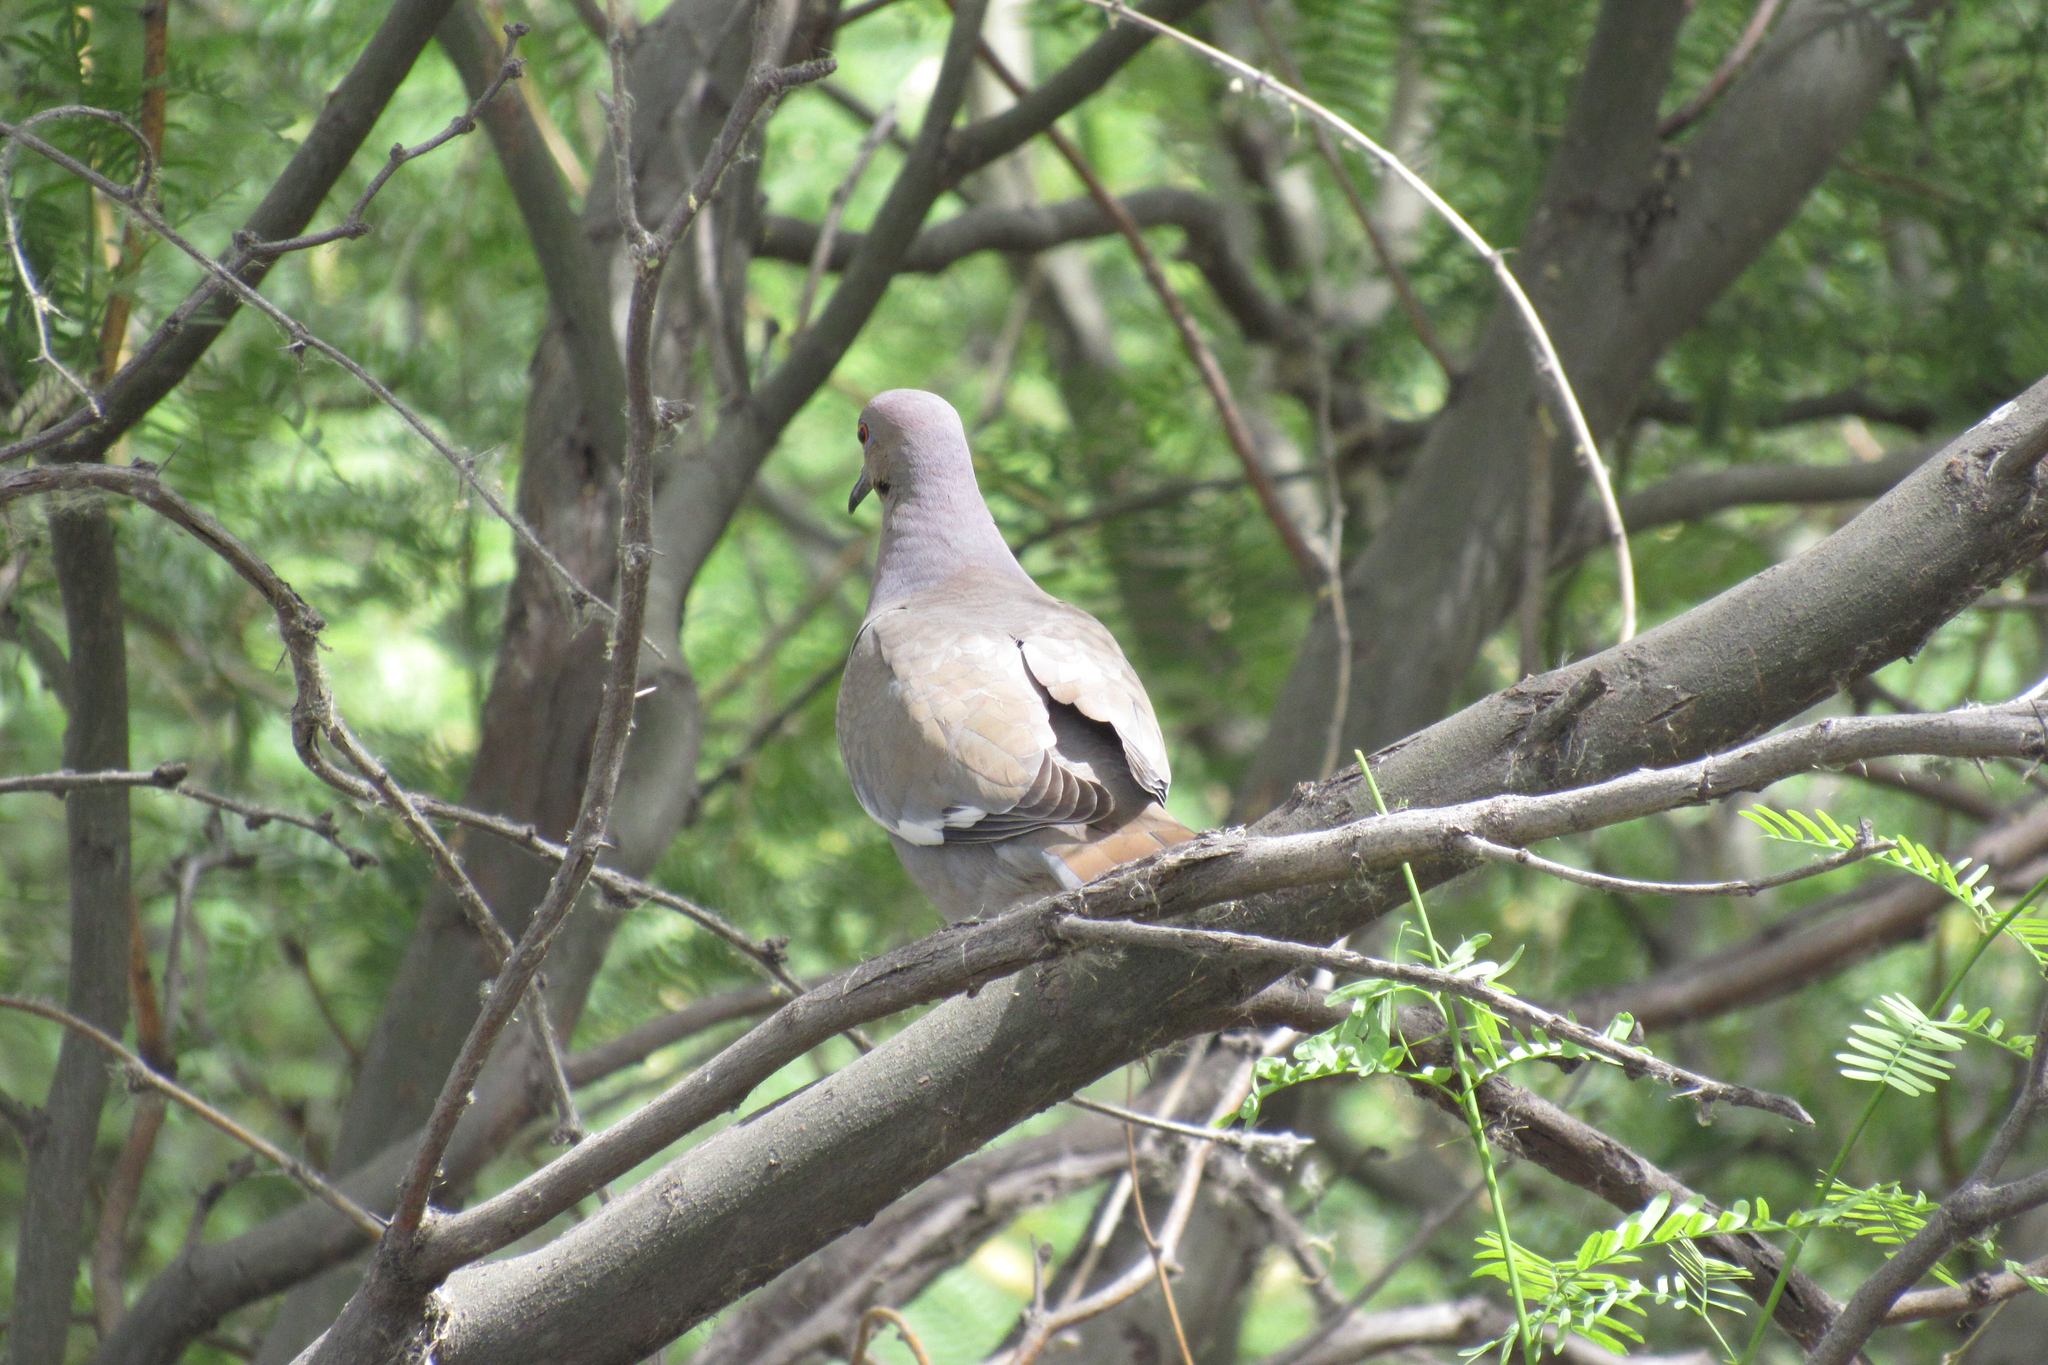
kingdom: Animalia
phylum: Chordata
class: Aves
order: Columbiformes
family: Columbidae
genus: Zenaida
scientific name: Zenaida asiatica
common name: White-winged dove
